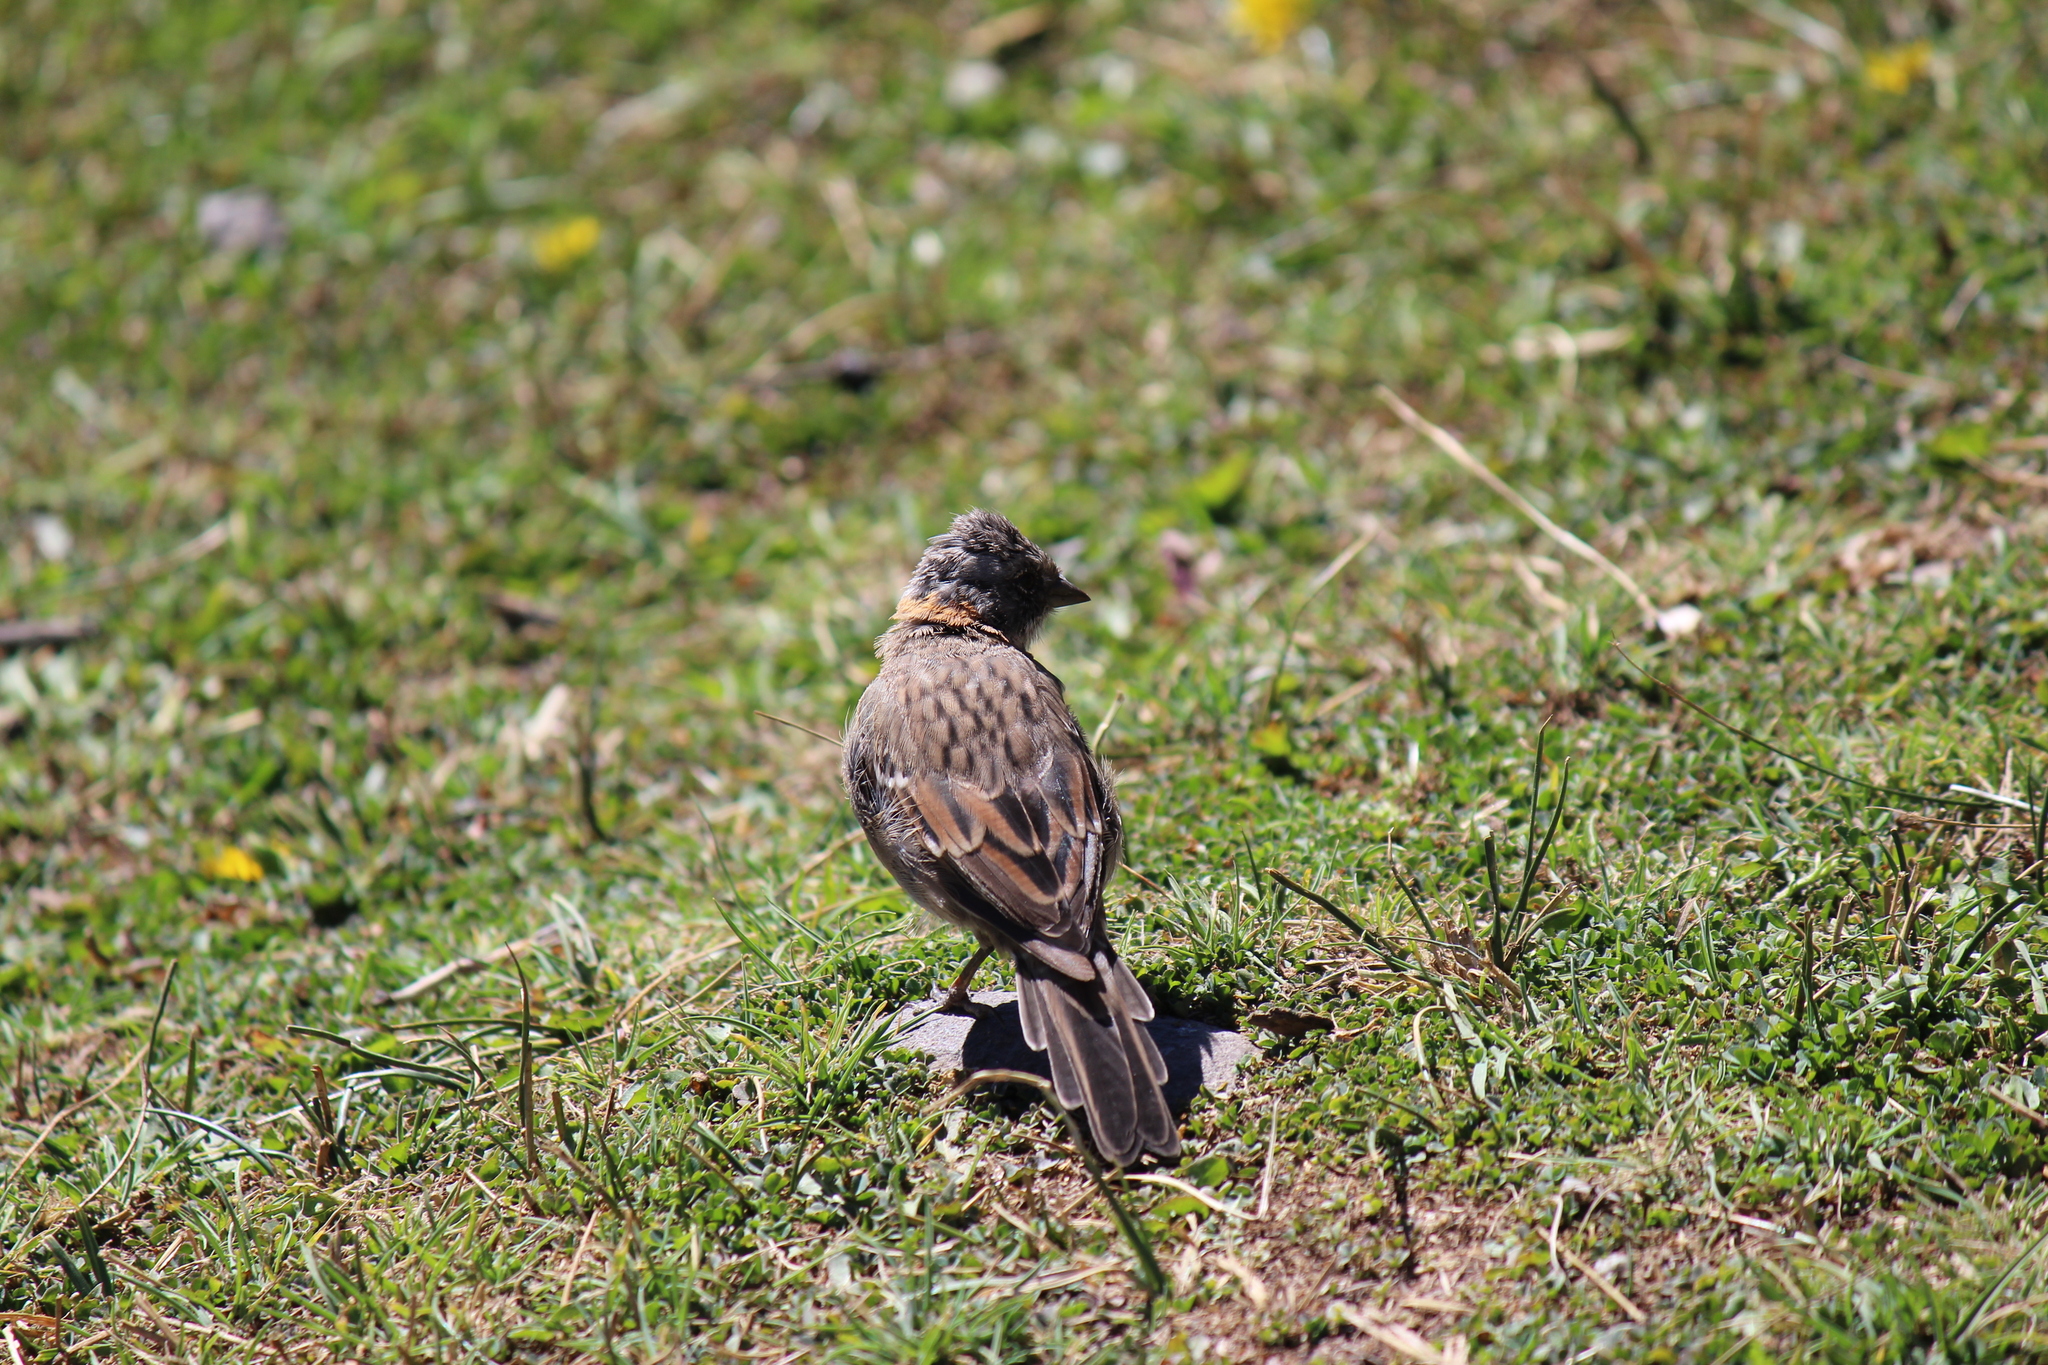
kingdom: Animalia
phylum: Chordata
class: Aves
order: Passeriformes
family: Passerellidae
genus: Zonotrichia
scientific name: Zonotrichia capensis
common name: Rufous-collared sparrow
